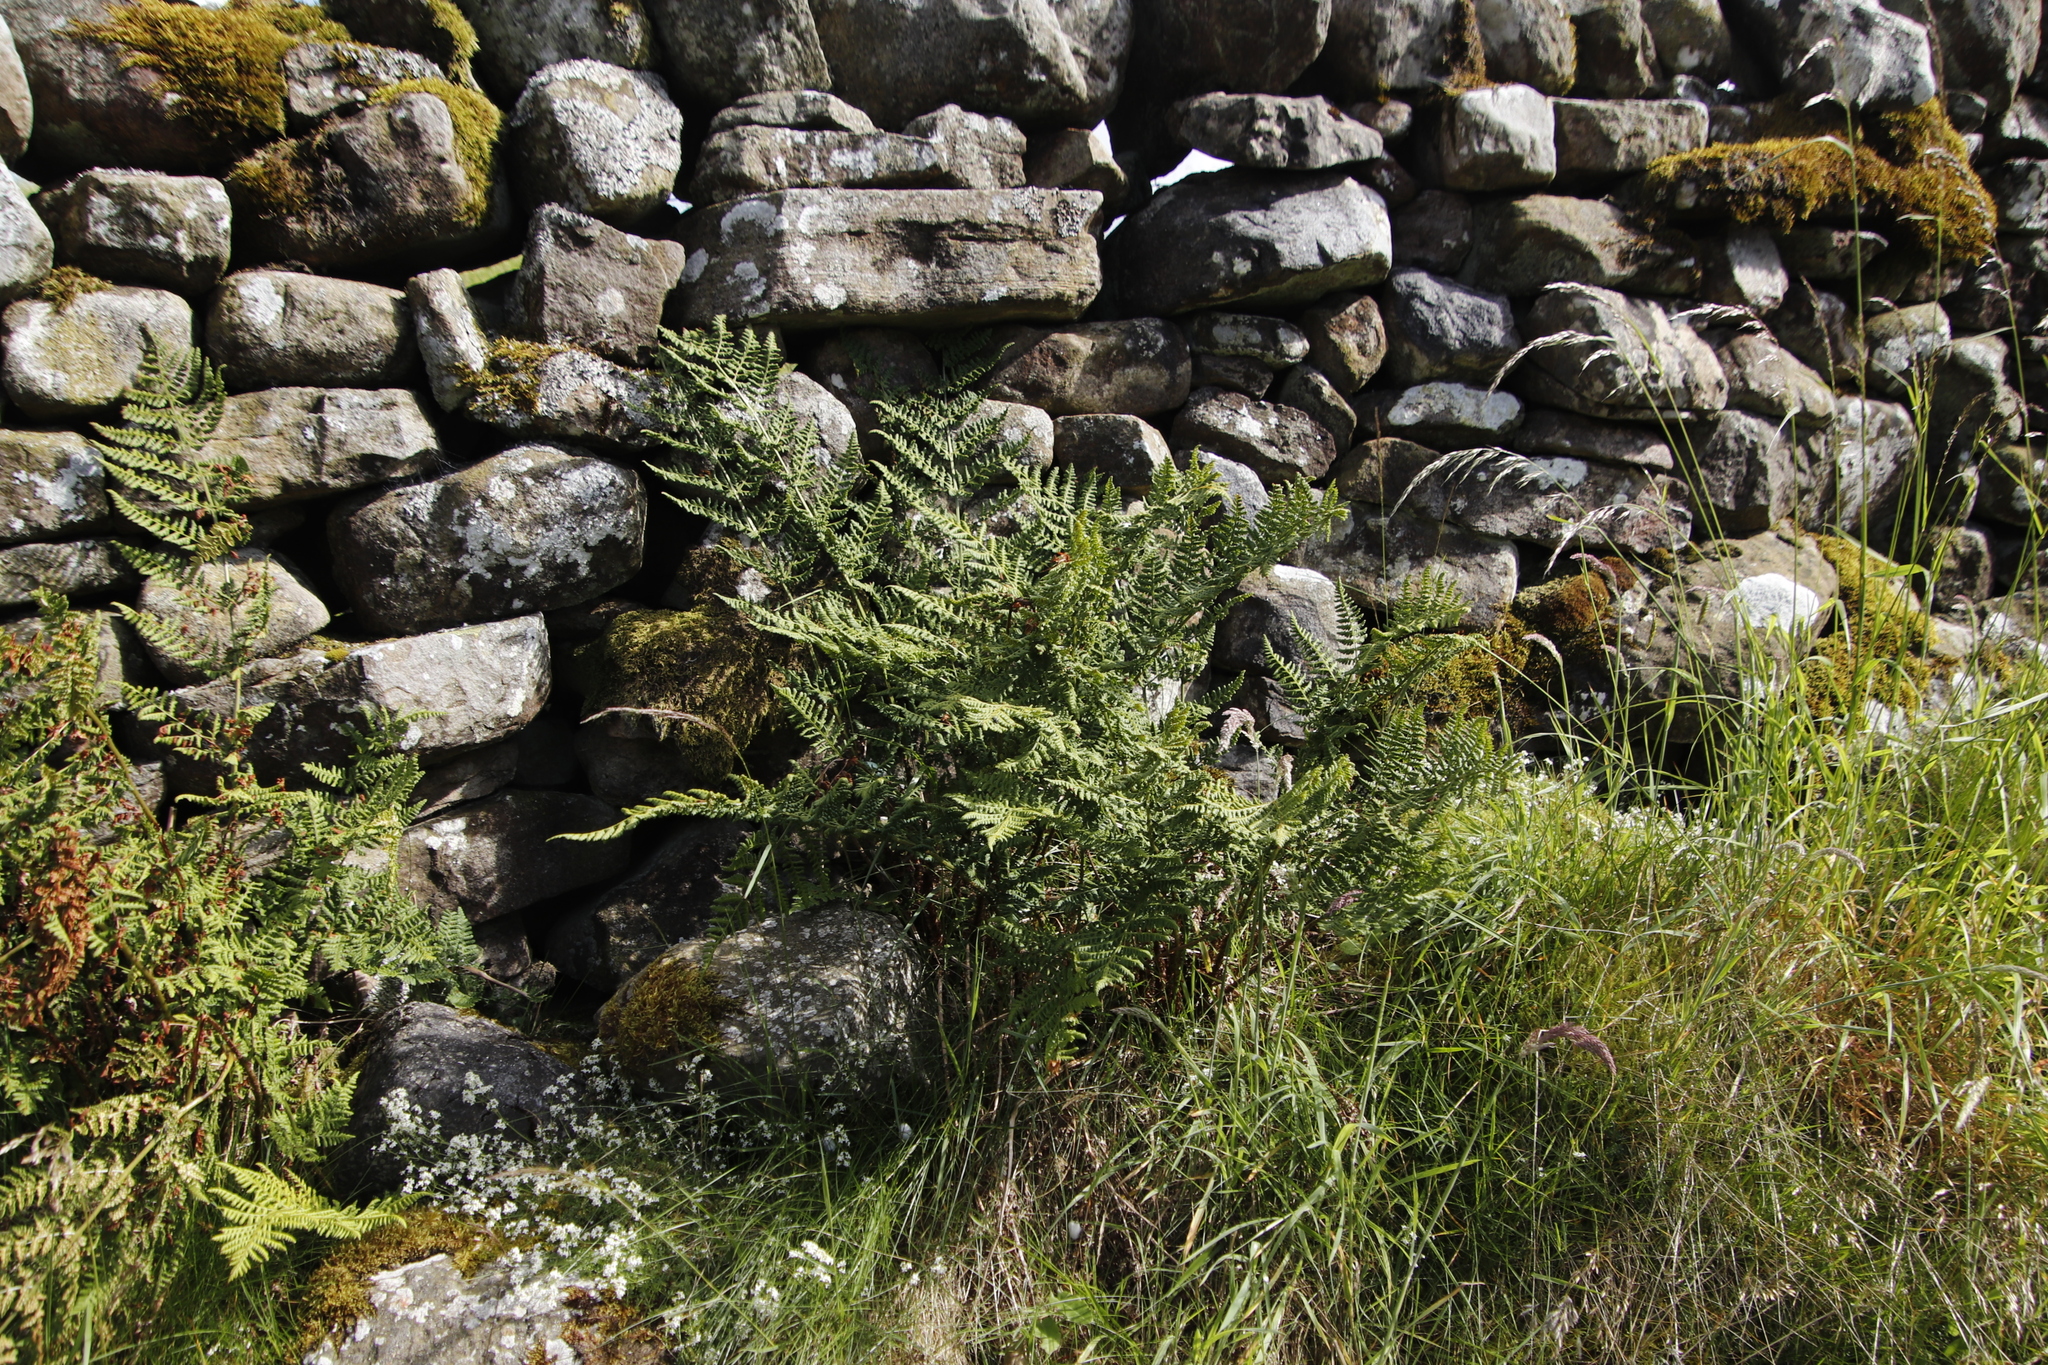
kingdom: Plantae
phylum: Tracheophyta
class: Polypodiopsida
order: Polypodiales
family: Dryopteridaceae
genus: Dryopteris
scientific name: Dryopteris dilatata
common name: Broad buckler-fern
